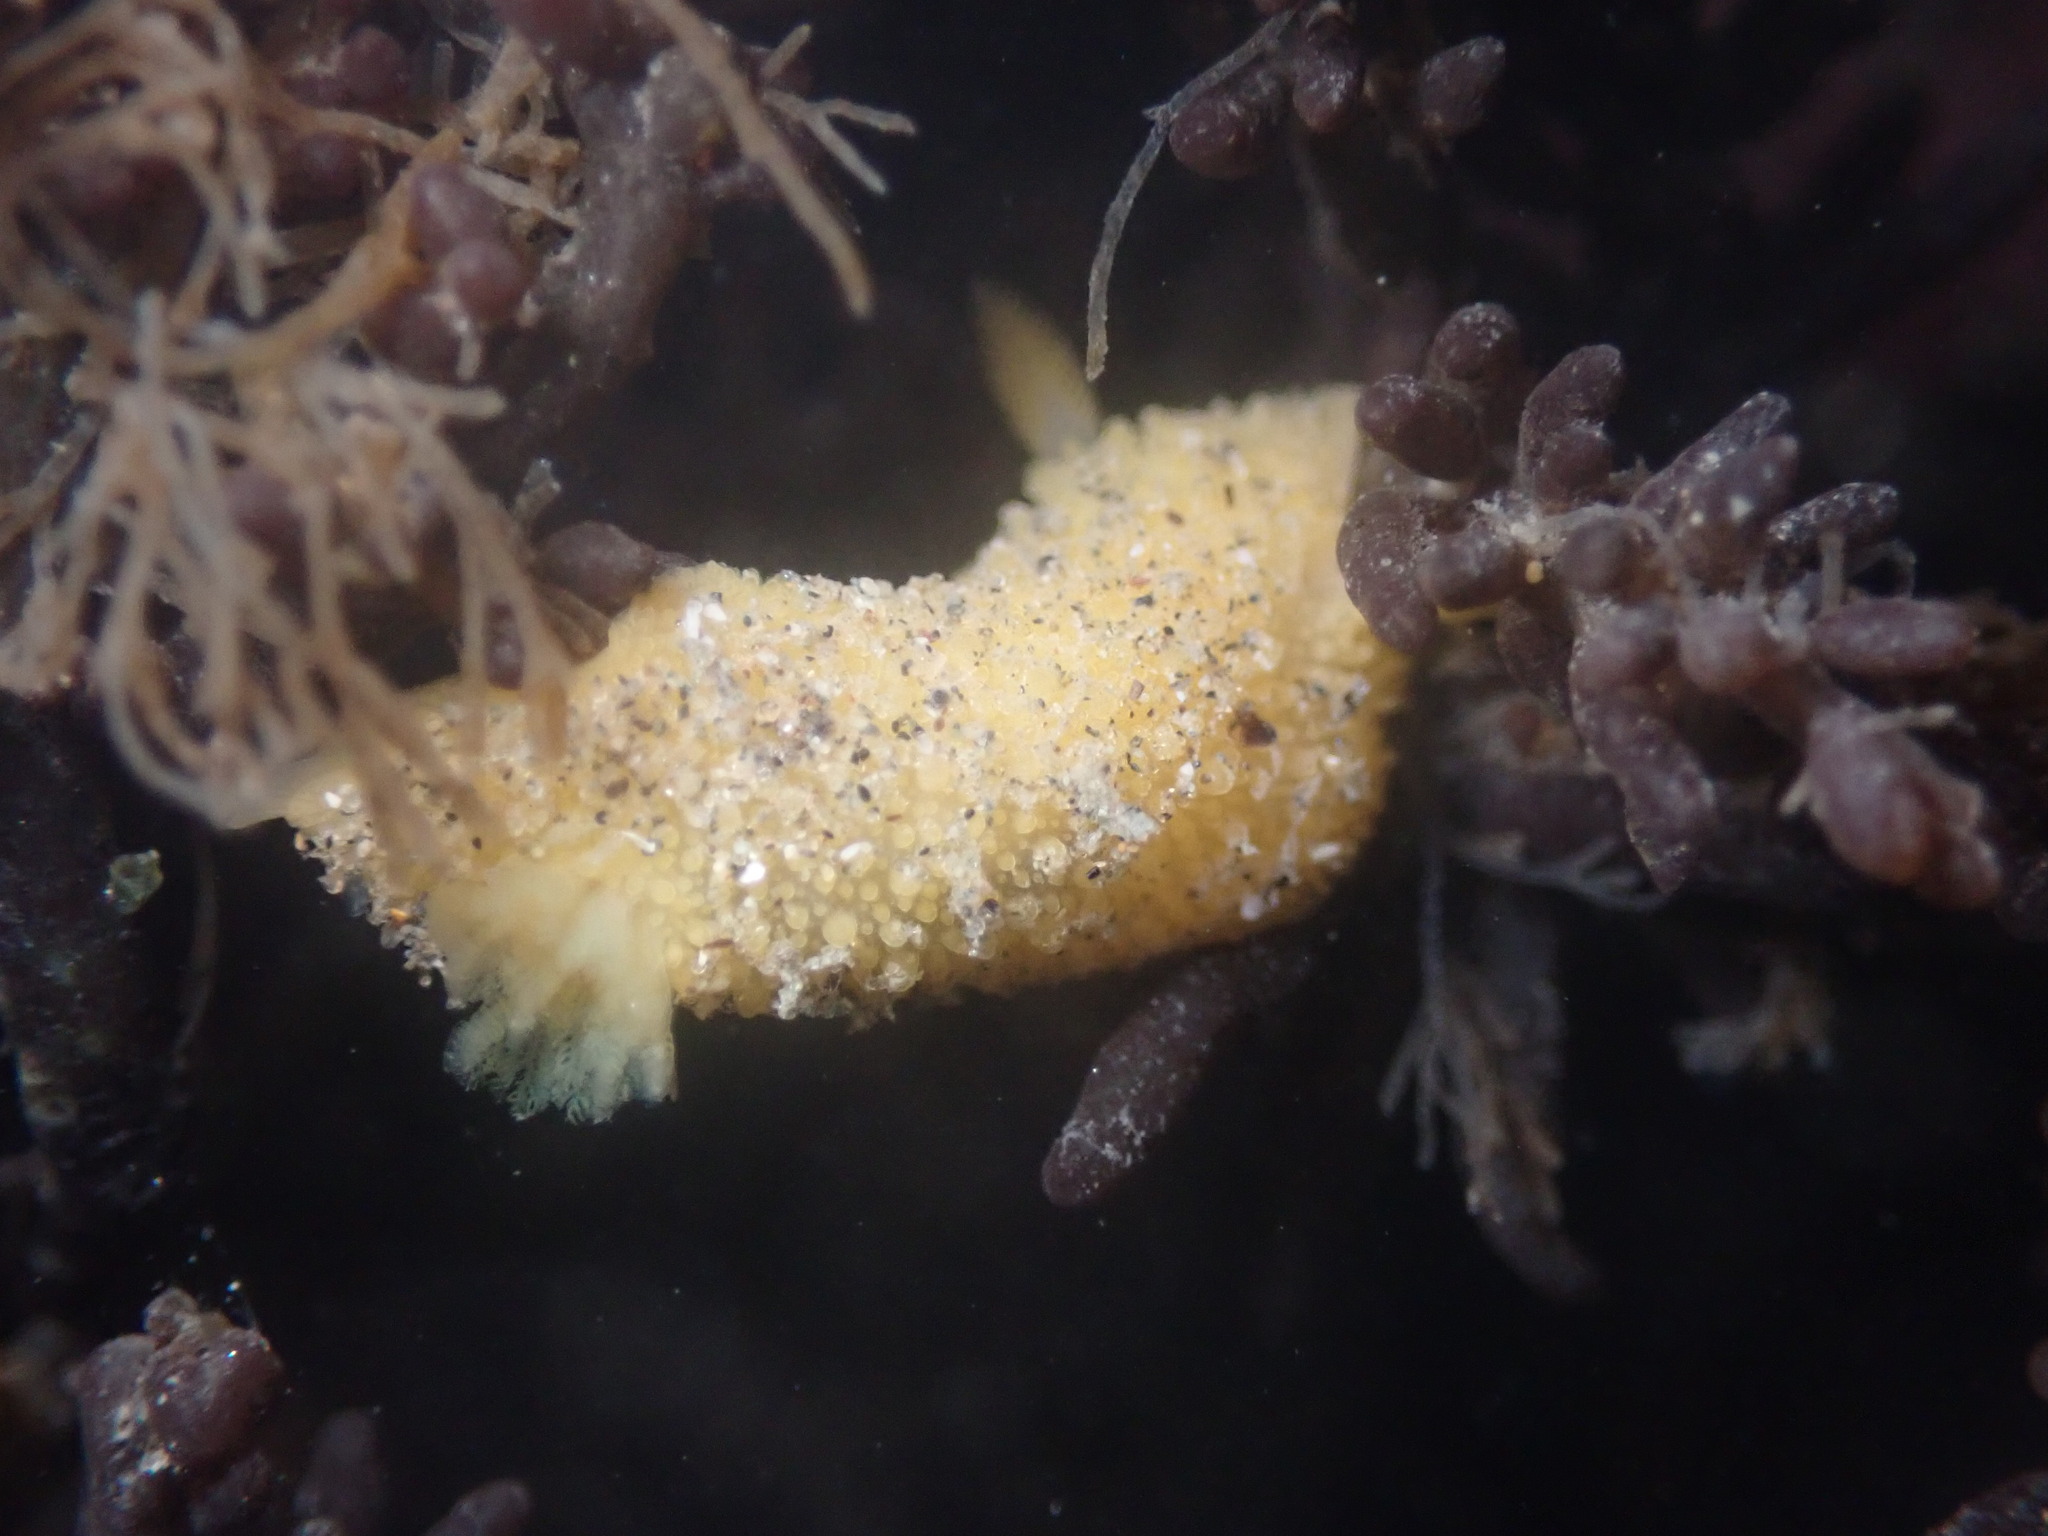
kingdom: Animalia
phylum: Mollusca
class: Gastropoda
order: Nudibranchia
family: Dorididae
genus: Doris
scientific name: Doris montereyensis
